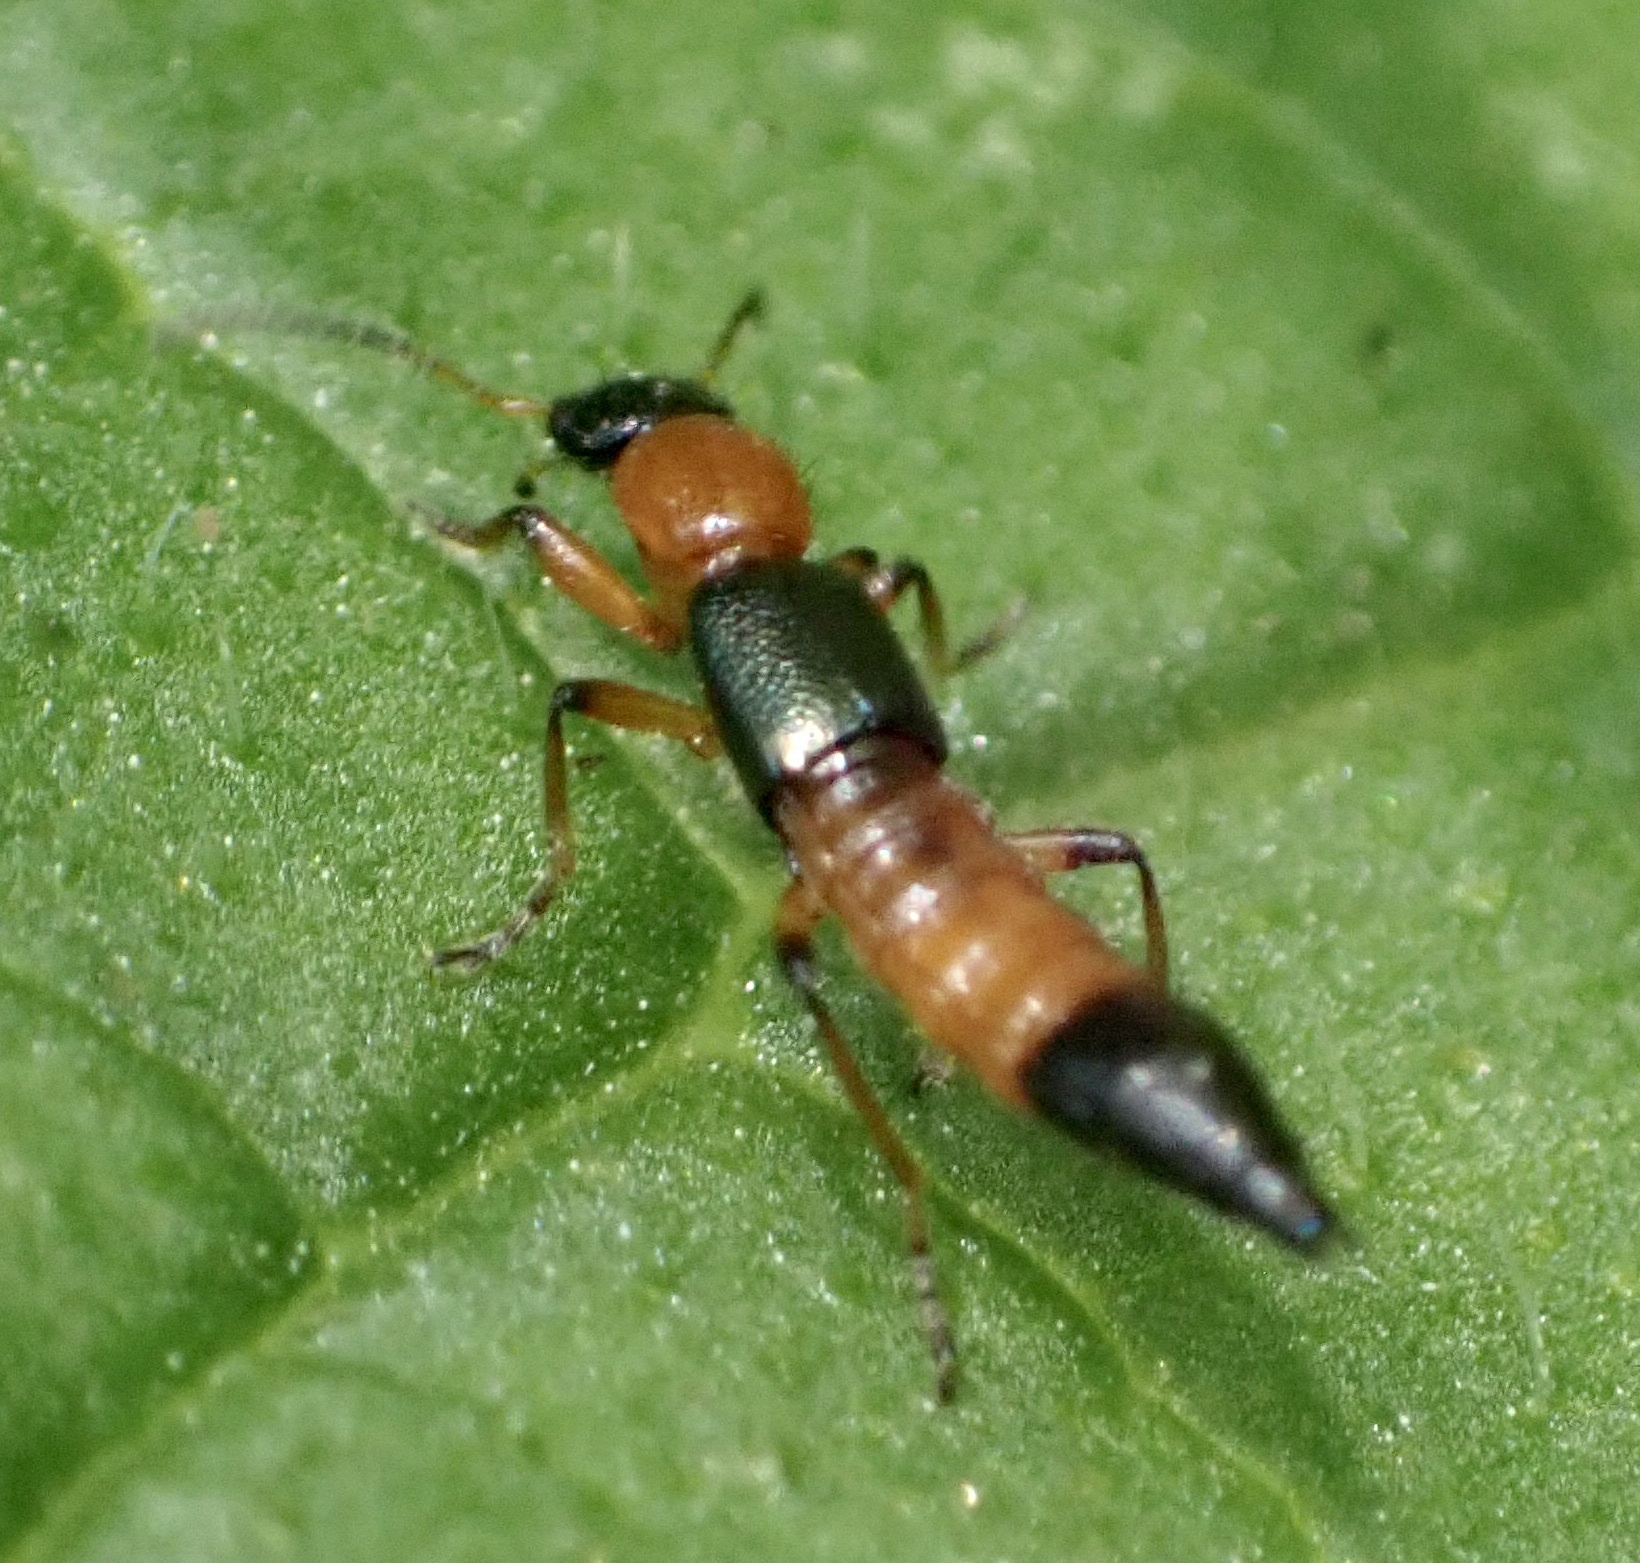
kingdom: Animalia
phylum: Arthropoda
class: Insecta
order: Coleoptera
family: Staphylinidae
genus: Paederus
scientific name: Paederus riparius
